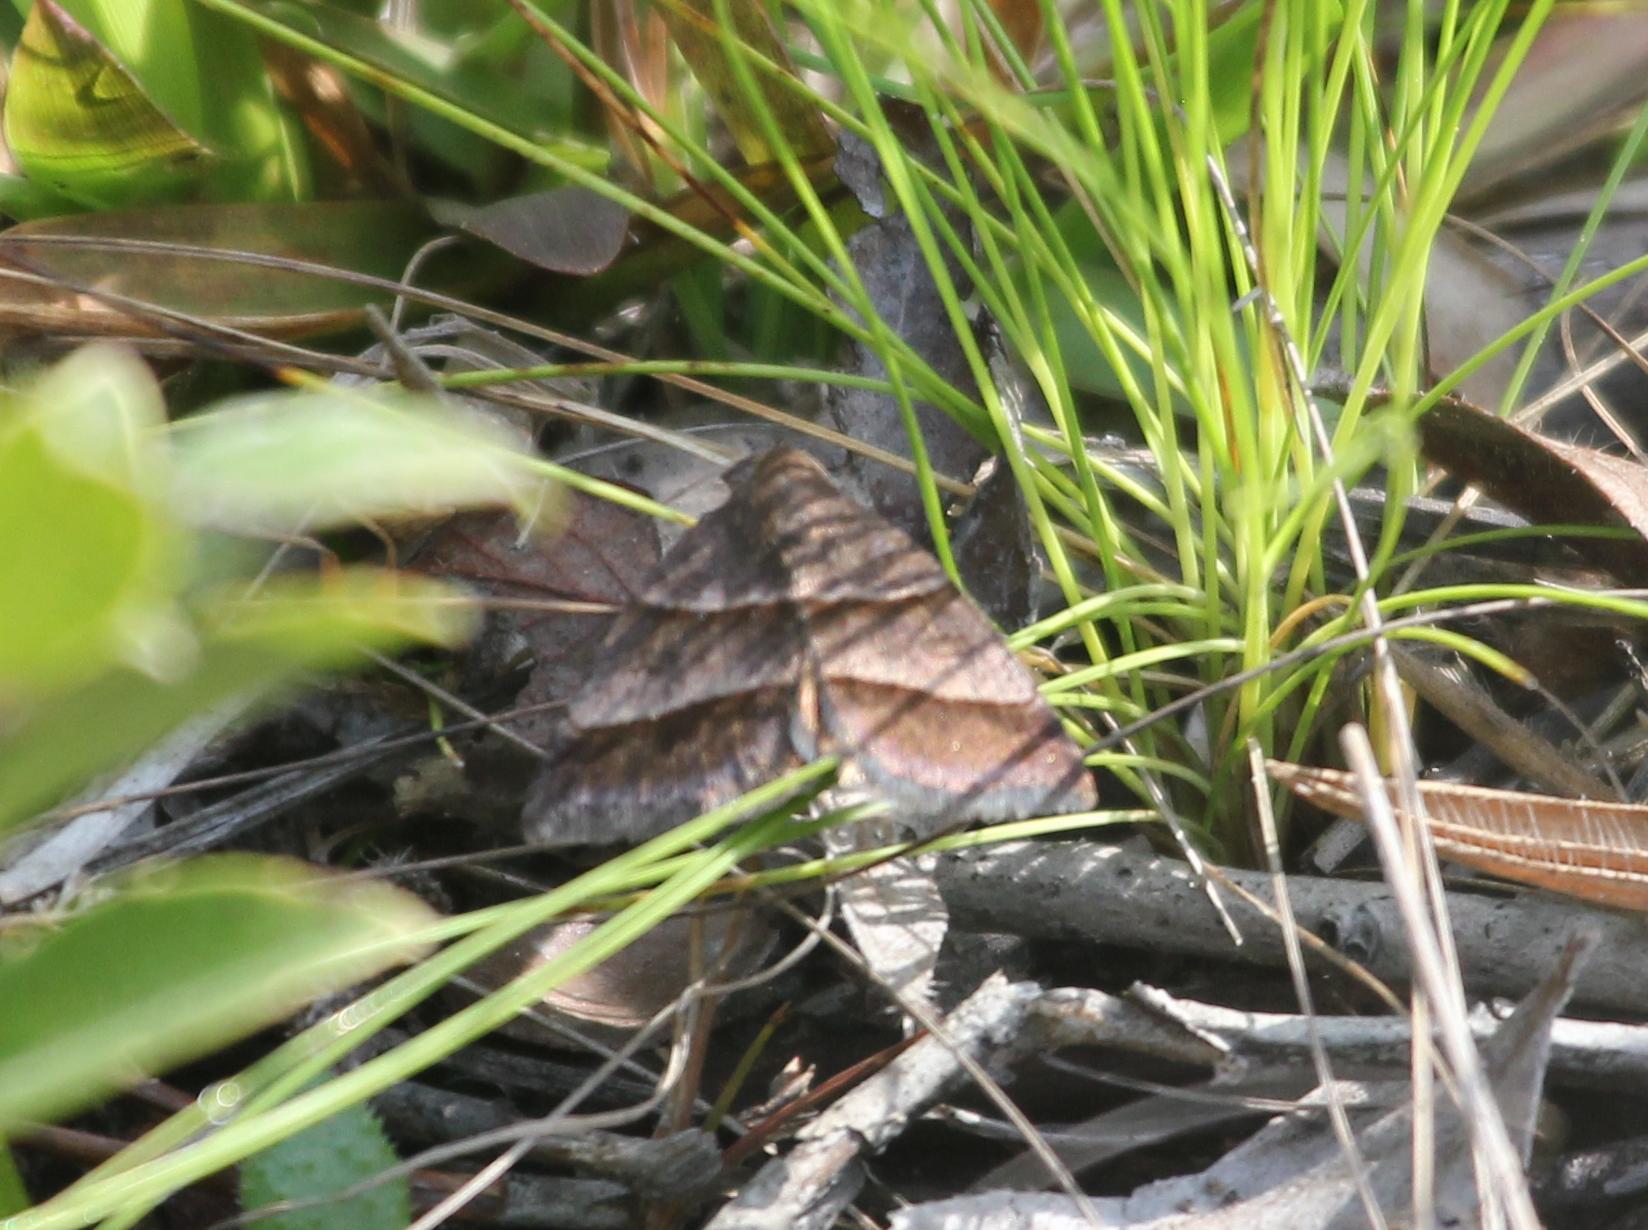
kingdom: Animalia
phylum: Arthropoda
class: Insecta
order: Lepidoptera
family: Erebidae
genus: Argyrostrotis
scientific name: Argyrostrotis sylvarum
